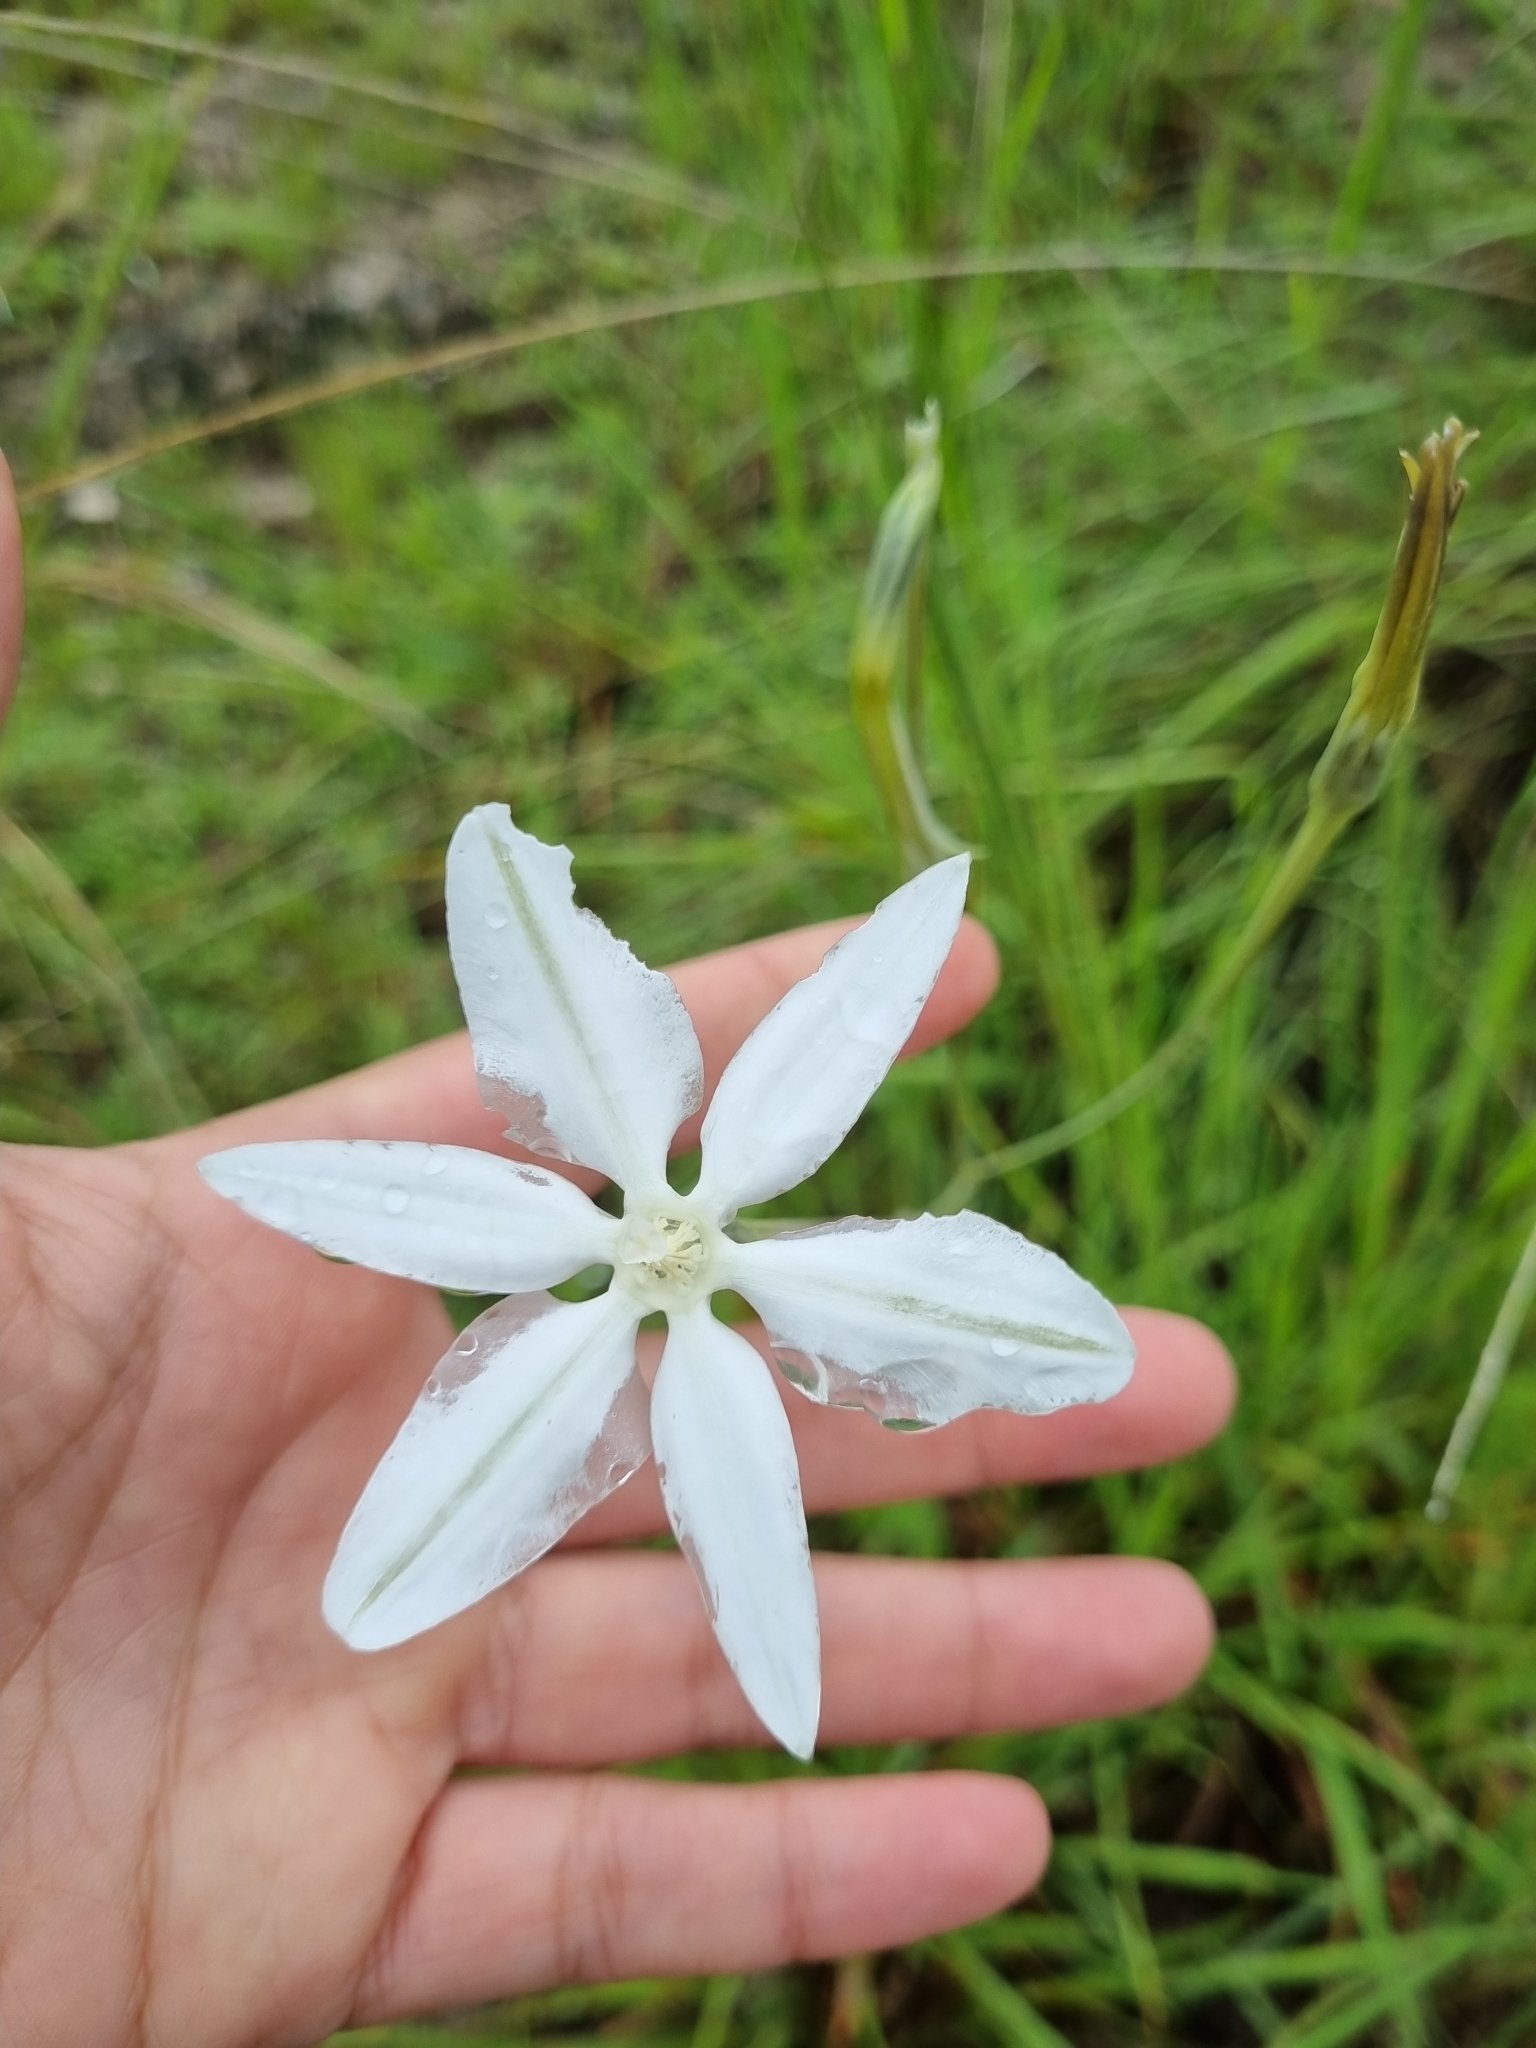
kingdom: Plantae
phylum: Tracheophyta
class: Liliopsida
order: Asparagales
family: Asparagaceae
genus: Milla
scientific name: Milla biflora
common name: Mexican-star
